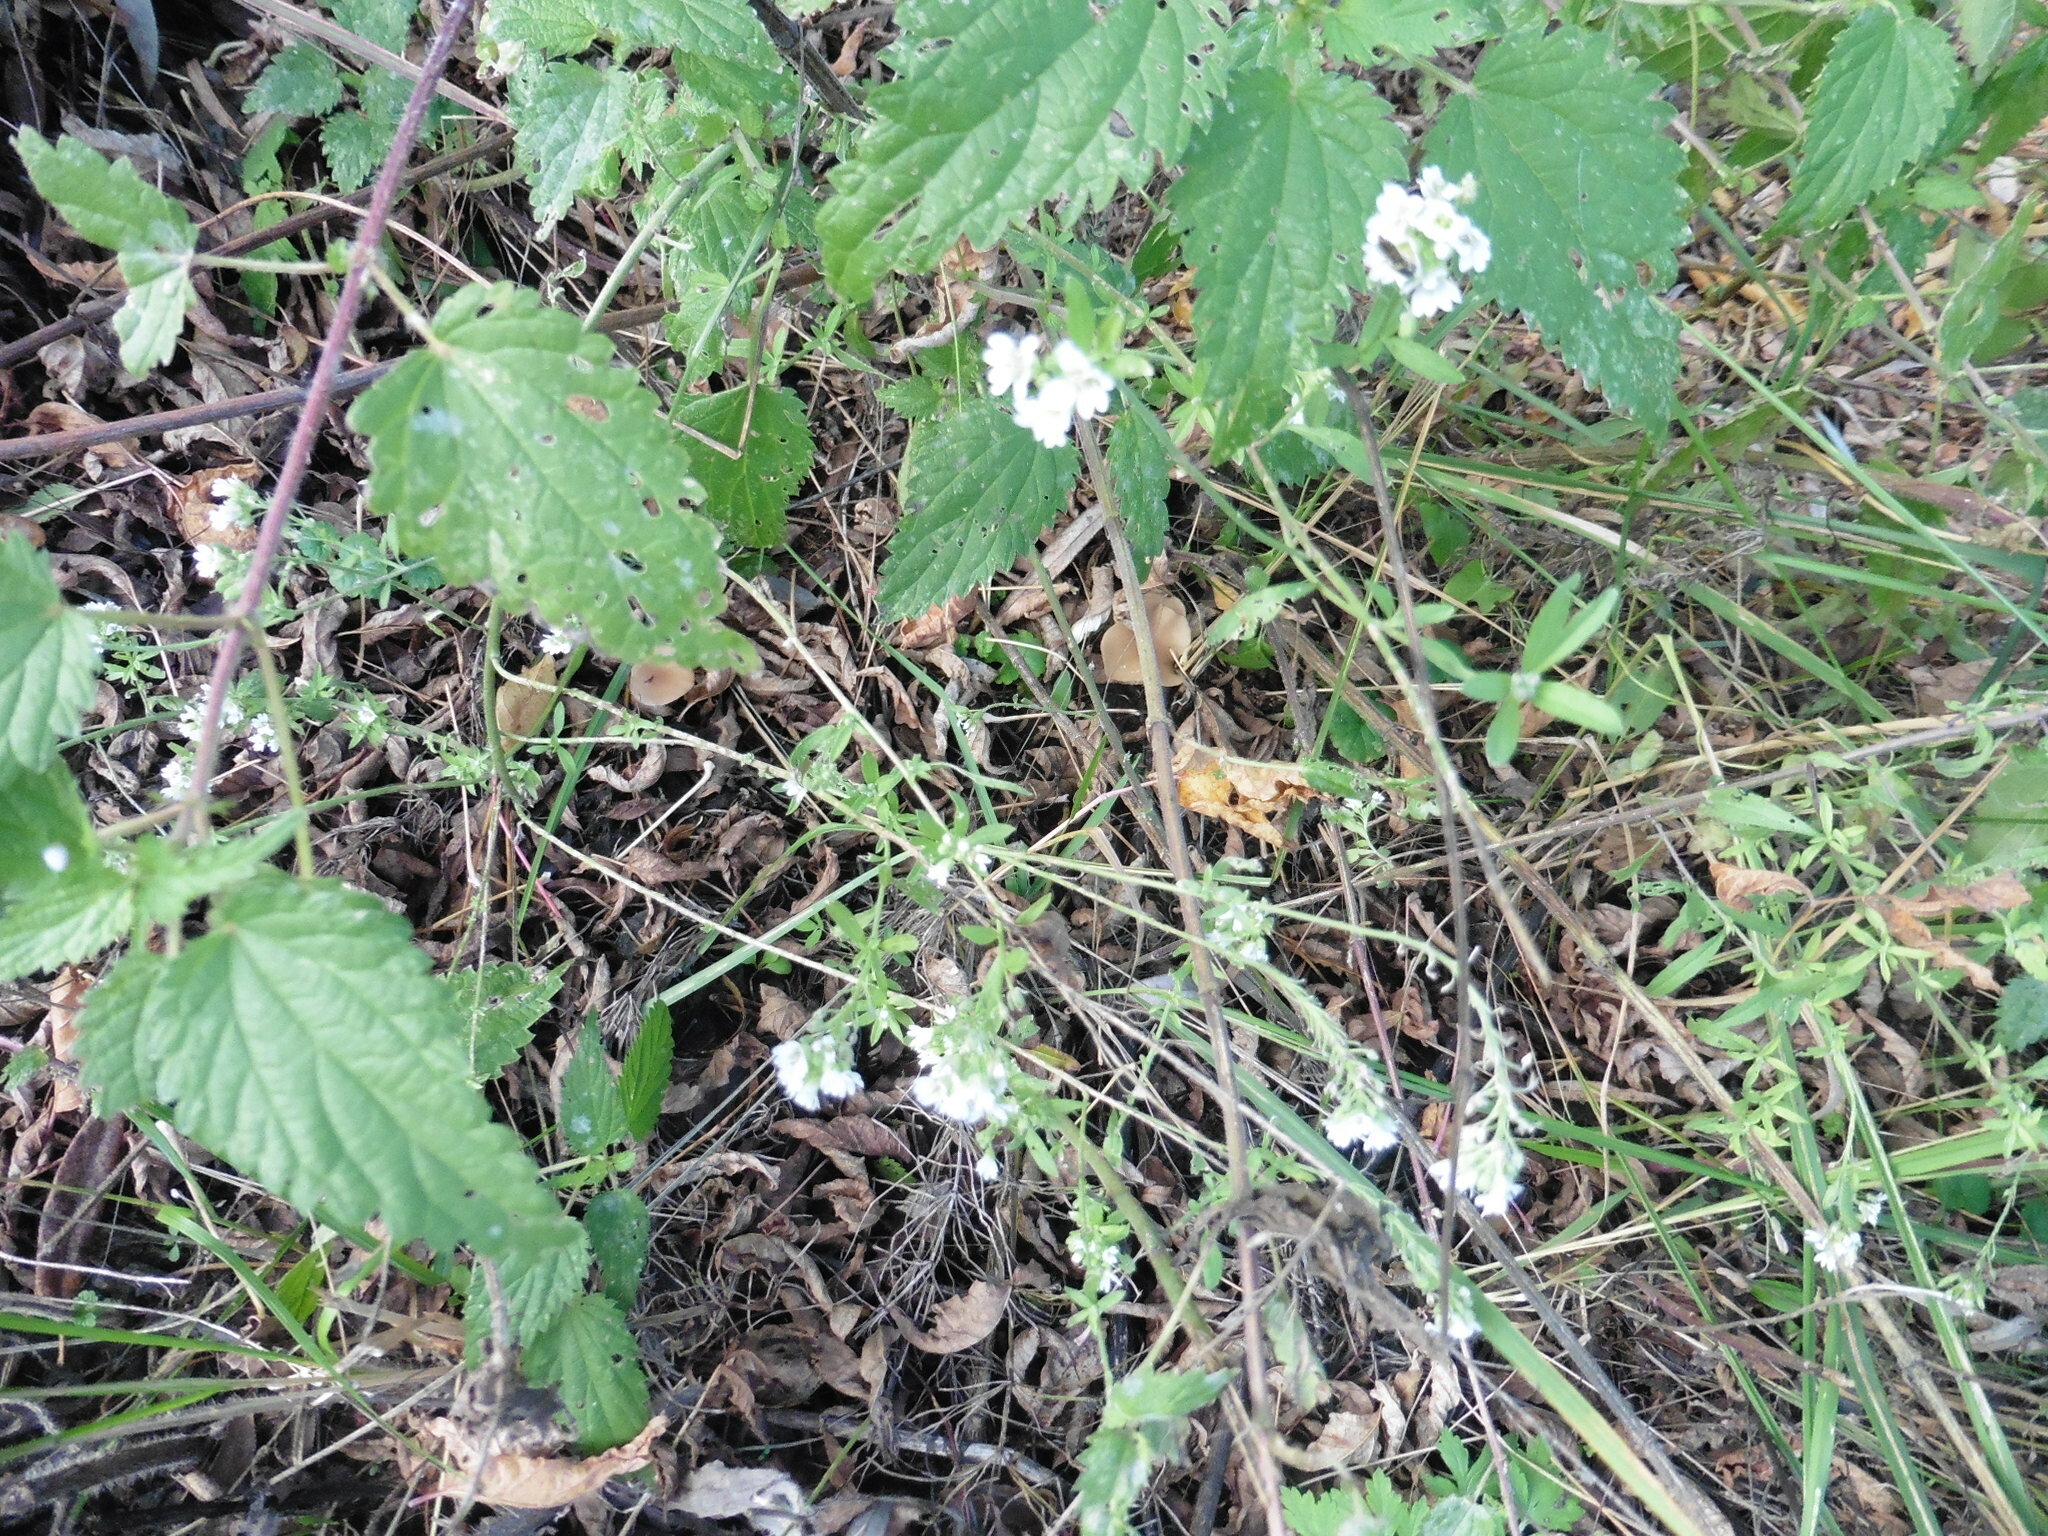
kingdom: Plantae
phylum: Tracheophyta
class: Magnoliopsida
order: Brassicales
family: Brassicaceae
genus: Berteroa
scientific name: Berteroa incana
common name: Hoary alison
